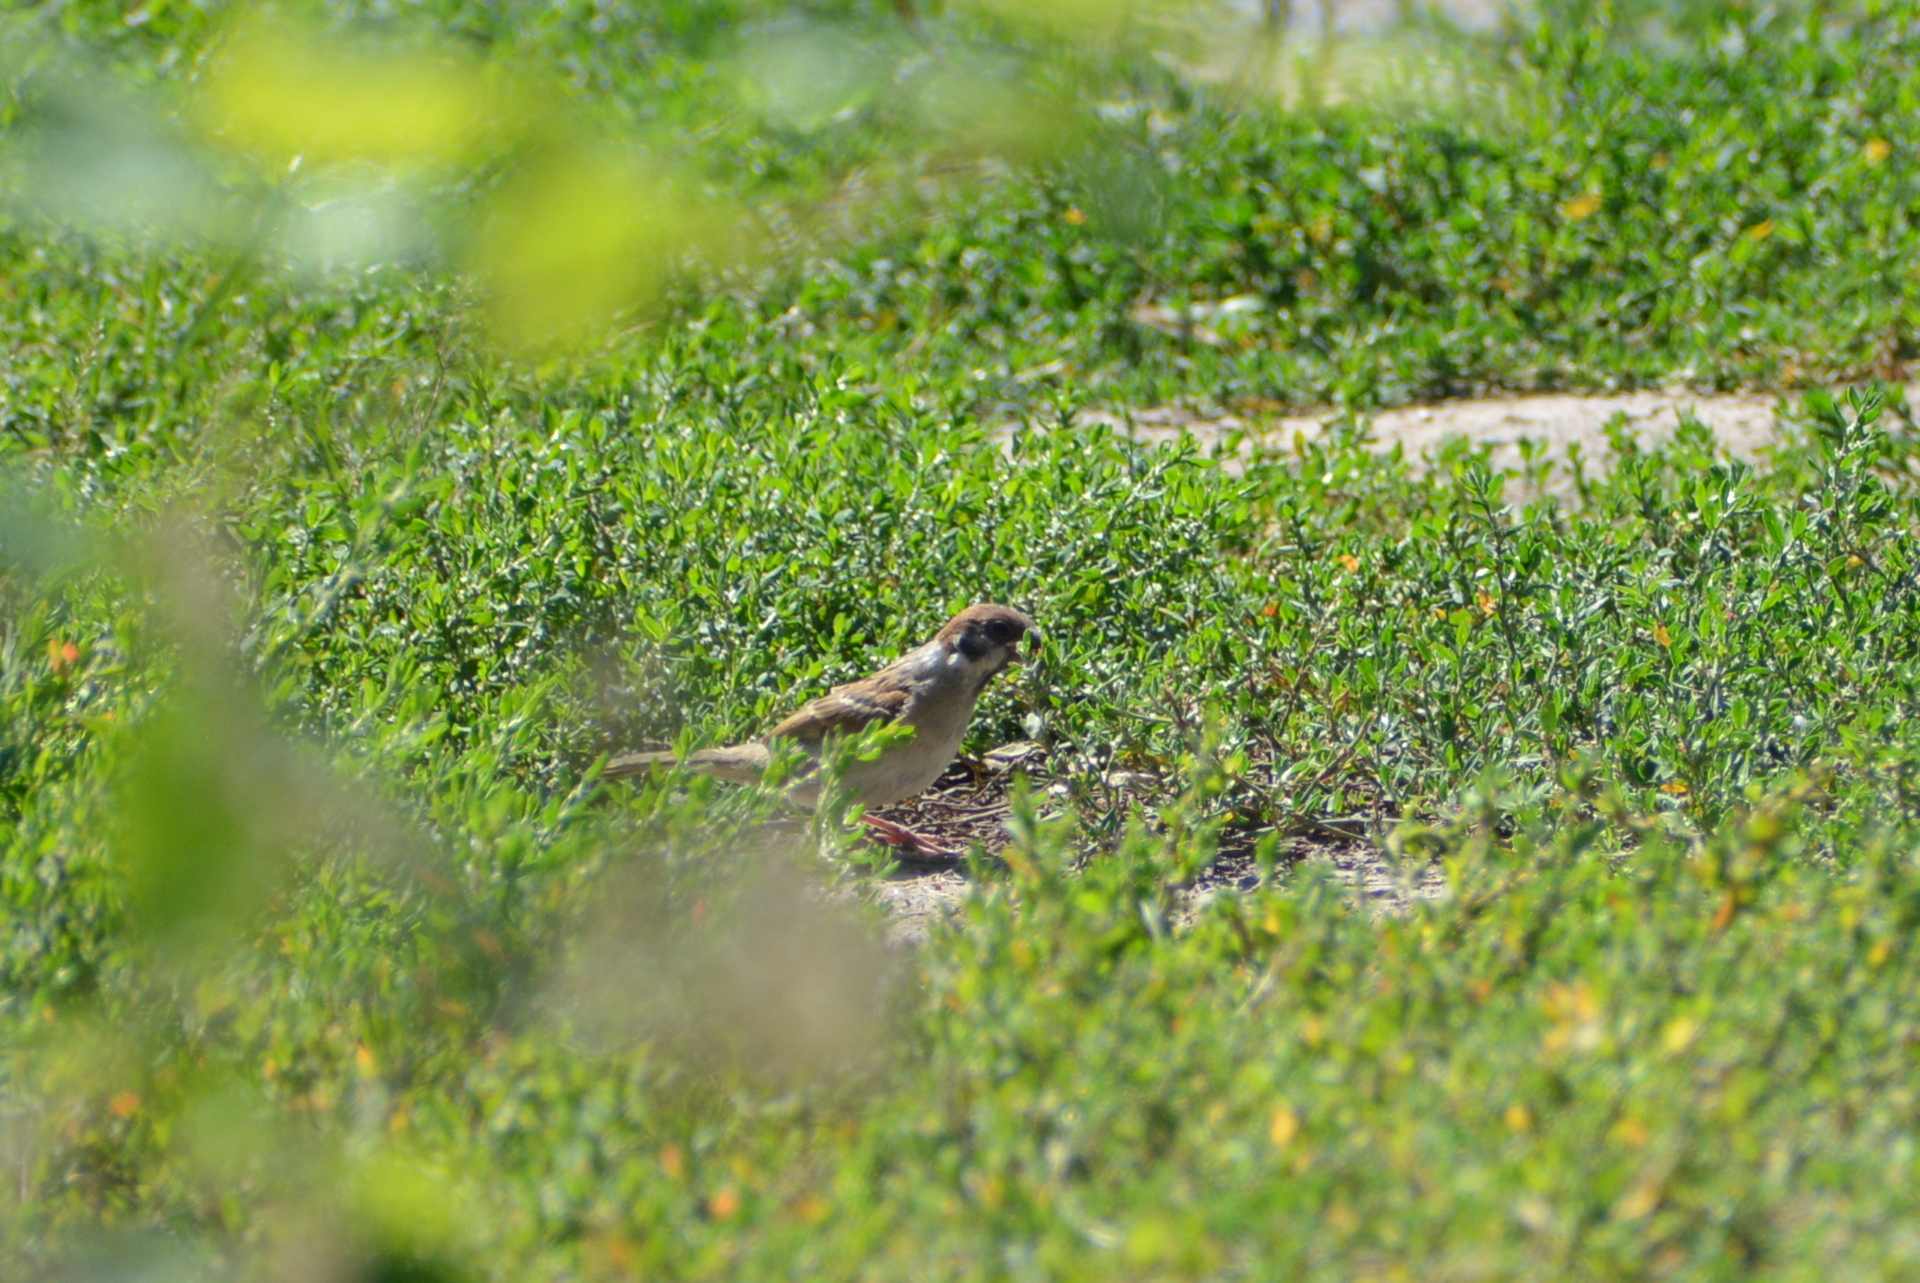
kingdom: Animalia
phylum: Chordata
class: Aves
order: Passeriformes
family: Passeridae
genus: Passer
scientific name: Passer montanus
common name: Eurasian tree sparrow
